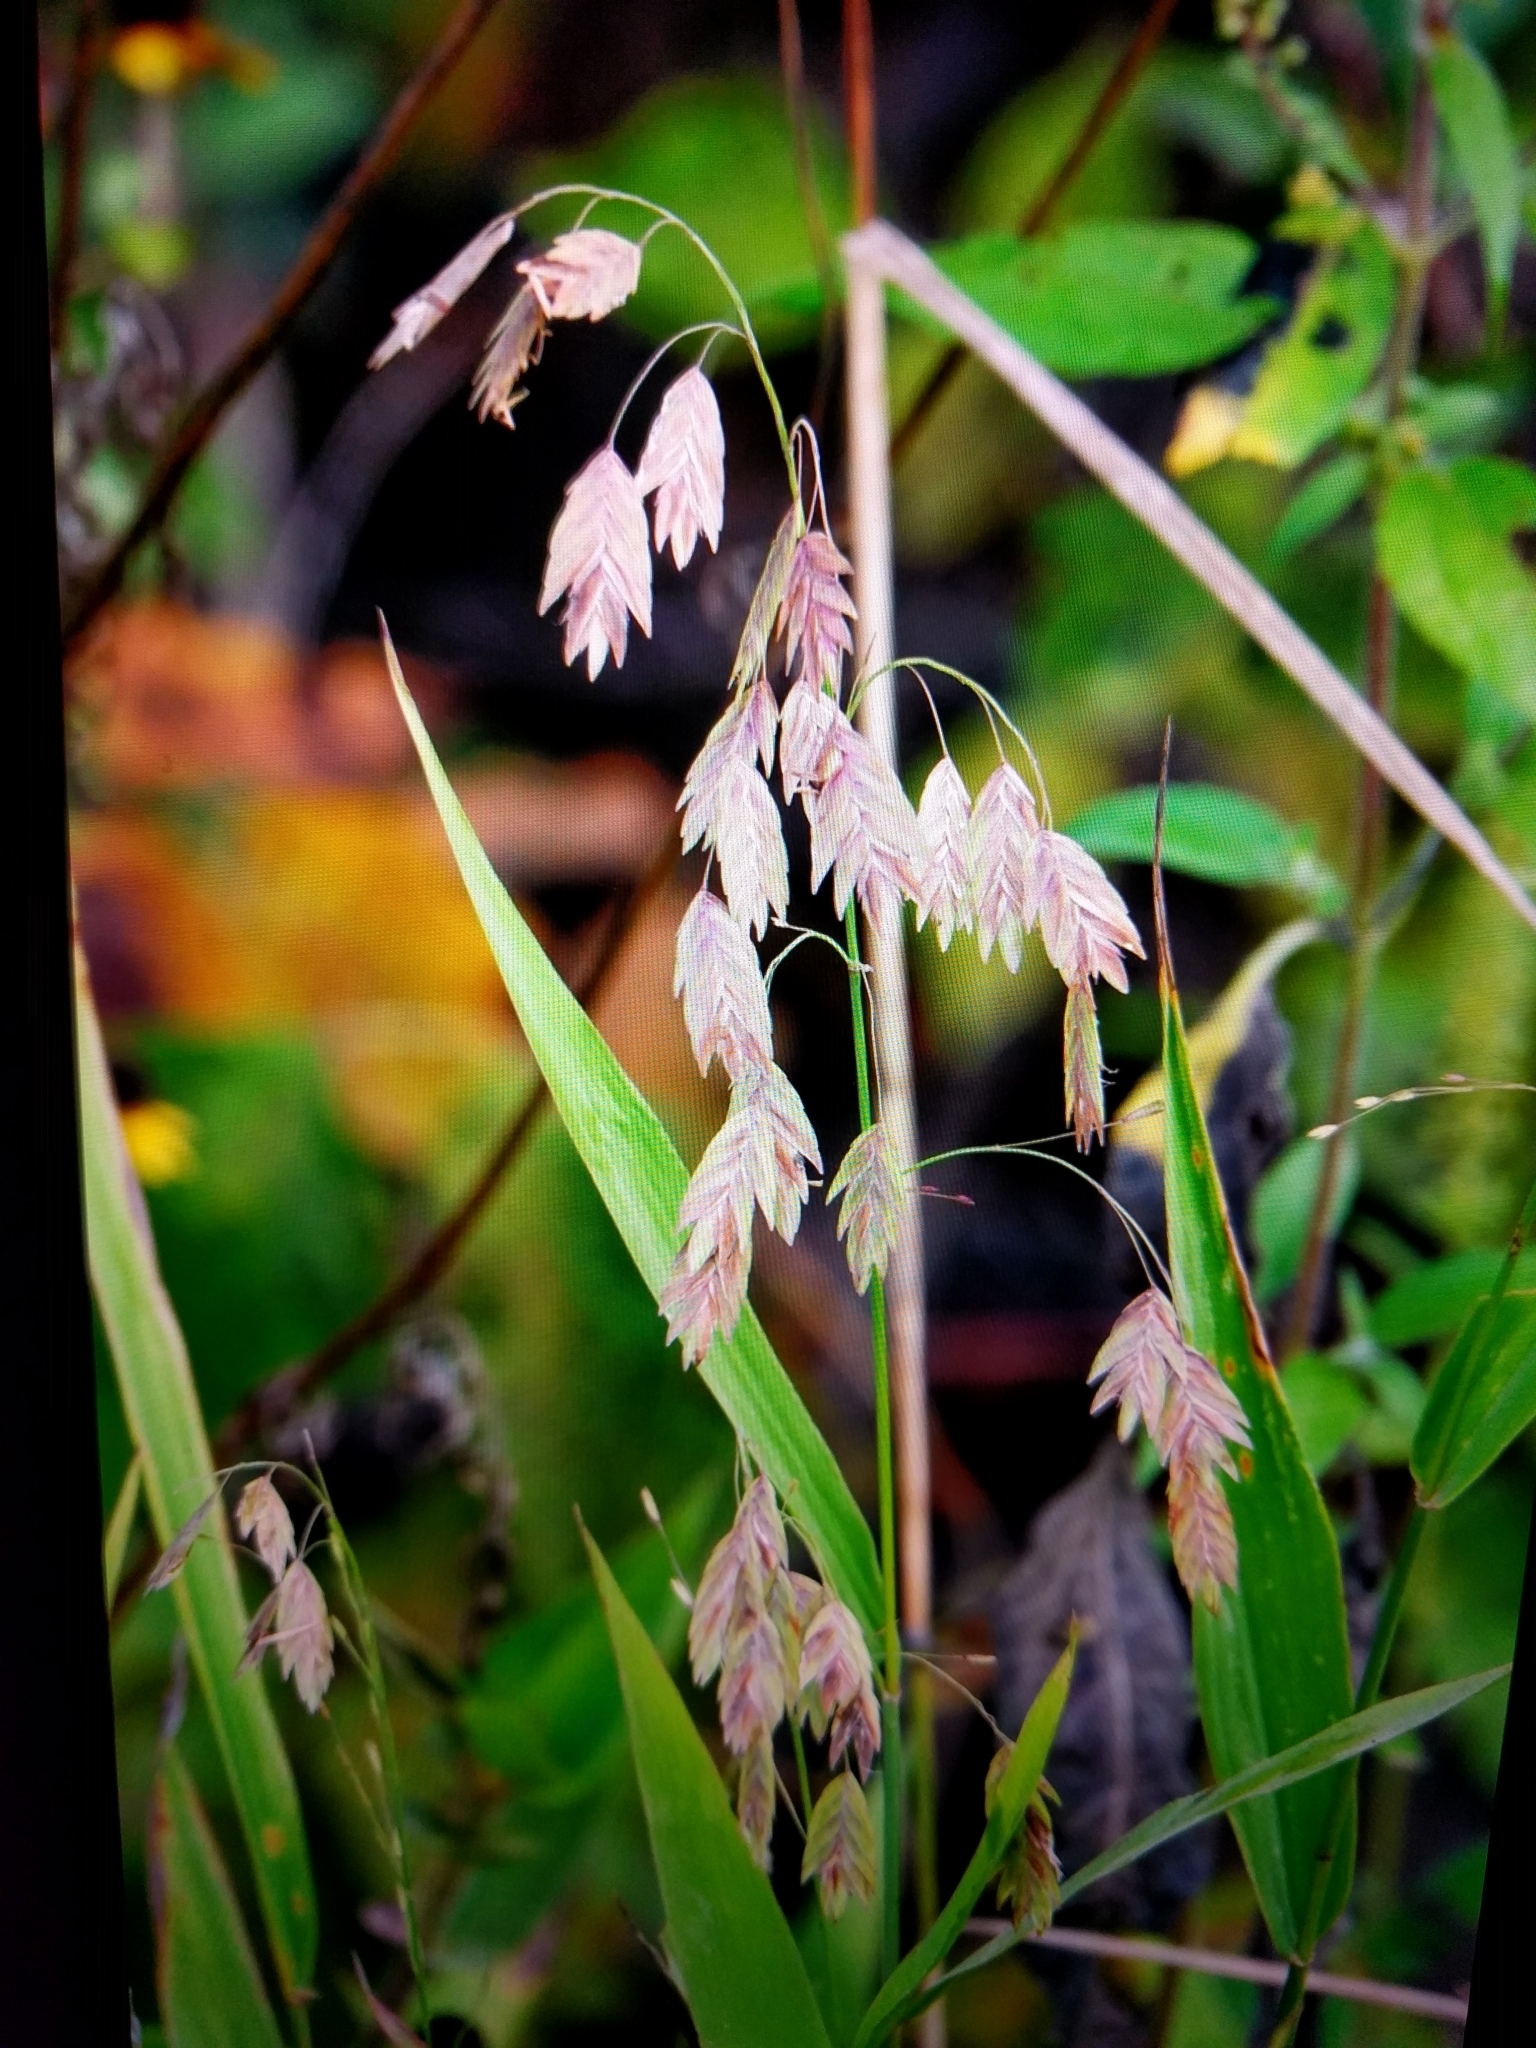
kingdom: Plantae
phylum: Tracheophyta
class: Liliopsida
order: Poales
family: Poaceae
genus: Chasmanthium
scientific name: Chasmanthium latifolium
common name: Broad-leaved chasmanthium
